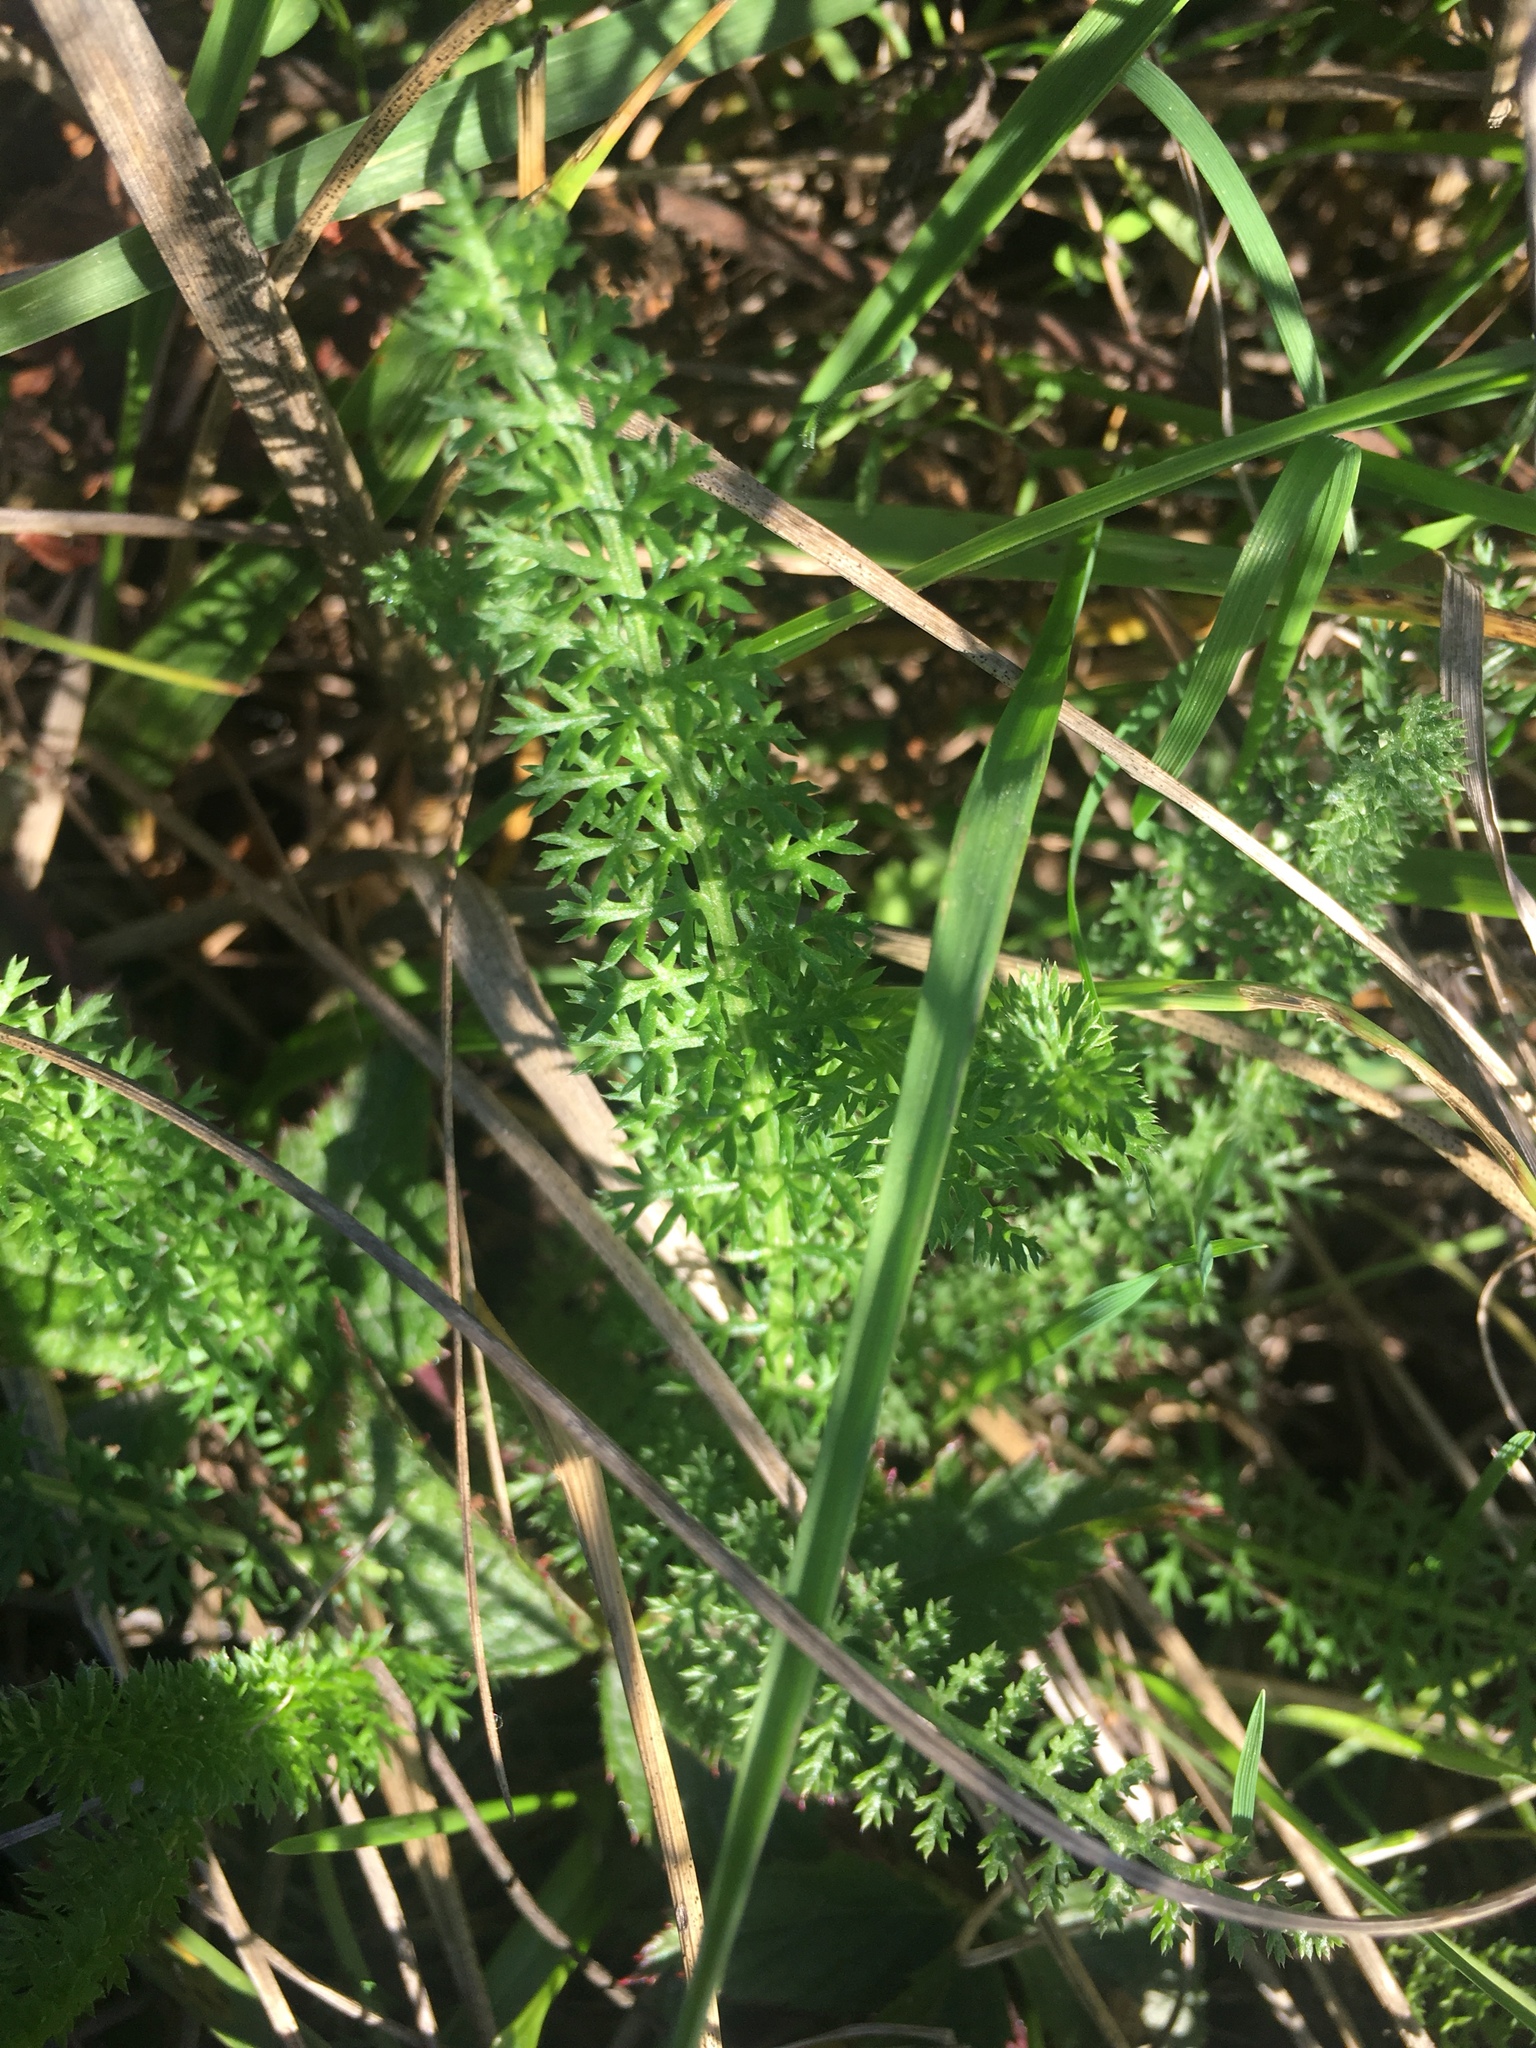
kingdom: Plantae
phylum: Tracheophyta
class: Magnoliopsida
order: Asterales
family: Asteraceae
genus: Achillea
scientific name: Achillea millefolium
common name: Yarrow
